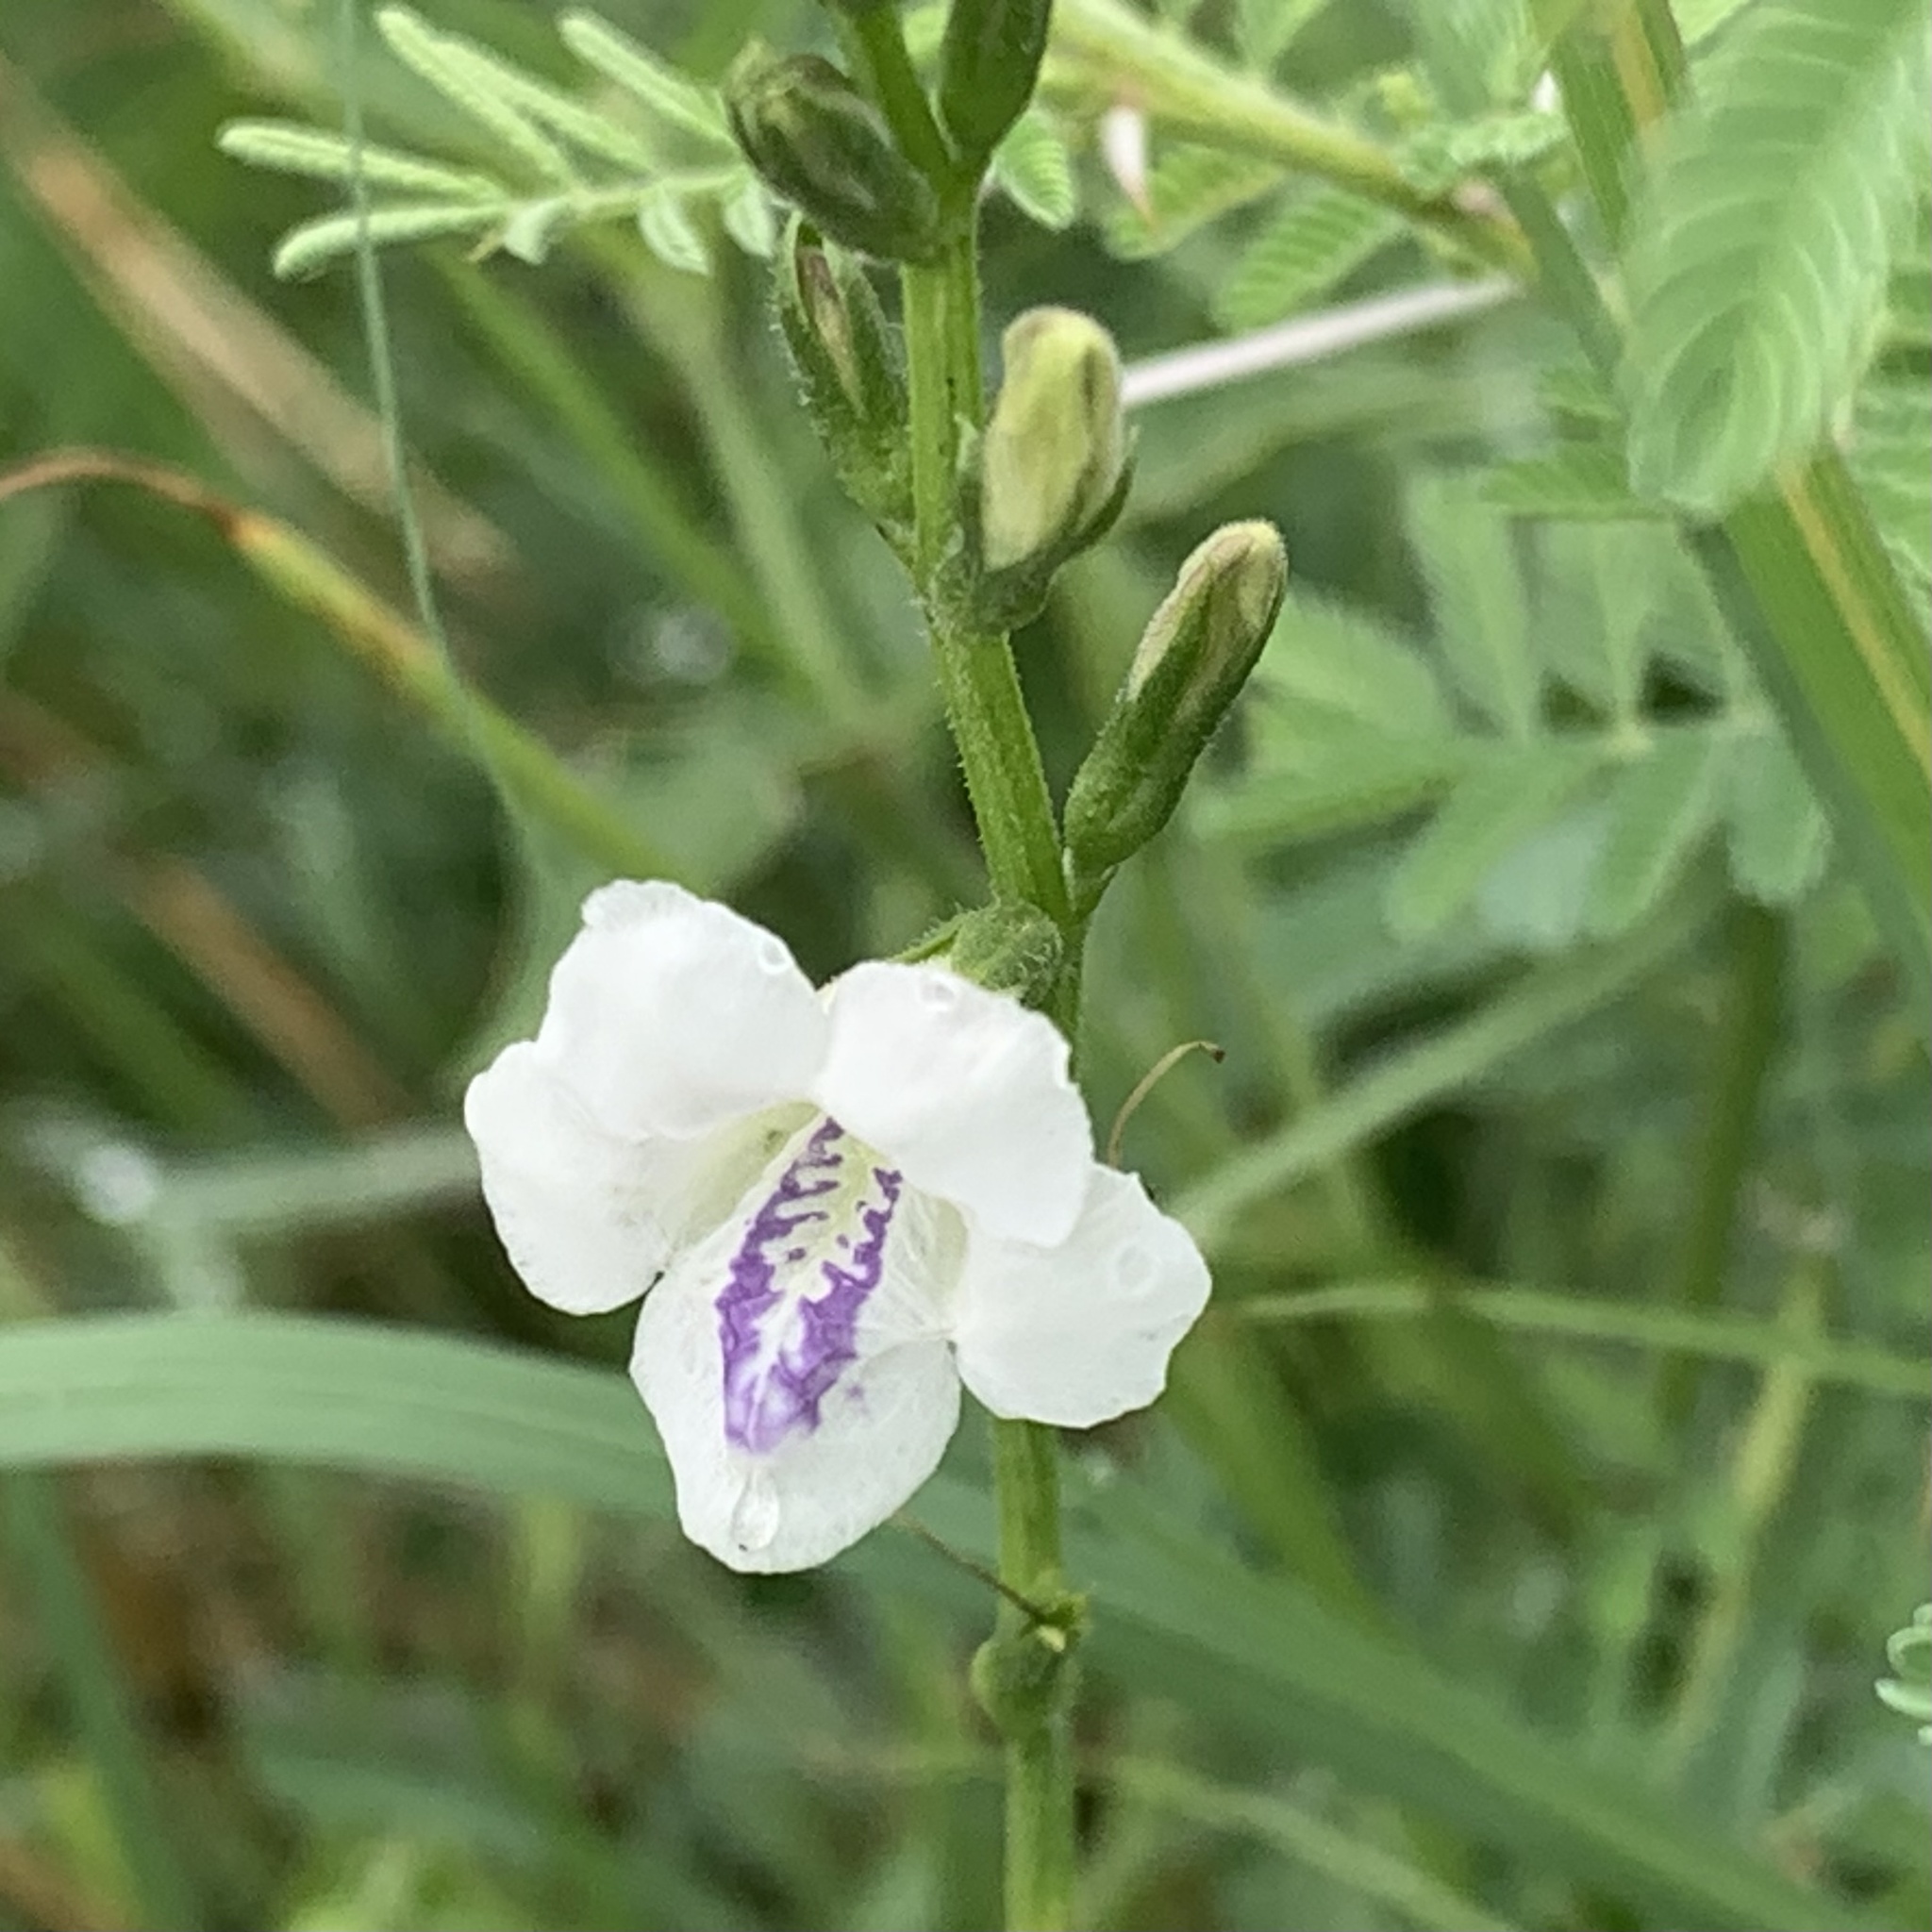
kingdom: Plantae
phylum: Tracheophyta
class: Magnoliopsida
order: Lamiales
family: Acanthaceae
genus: Asystasia
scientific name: Asystasia intrusa
